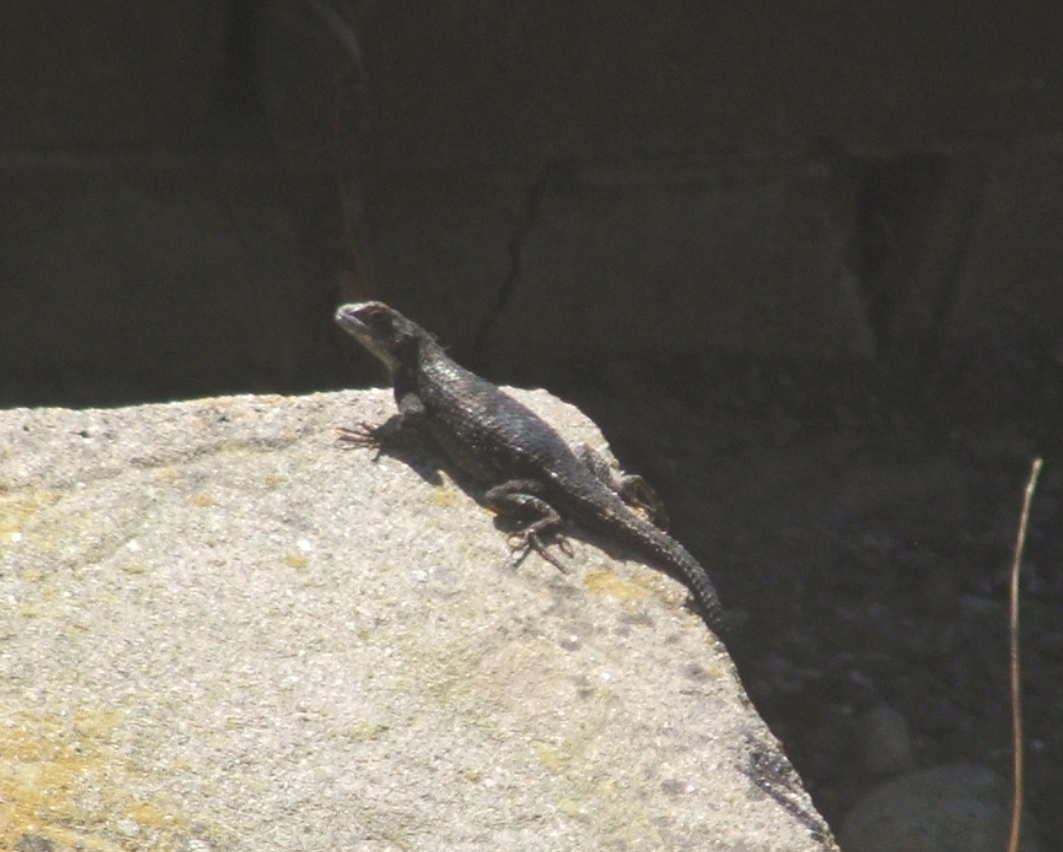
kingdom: Animalia
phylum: Chordata
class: Squamata
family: Phrynosomatidae
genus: Sceloporus
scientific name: Sceloporus occidentalis
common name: Western fence lizard
